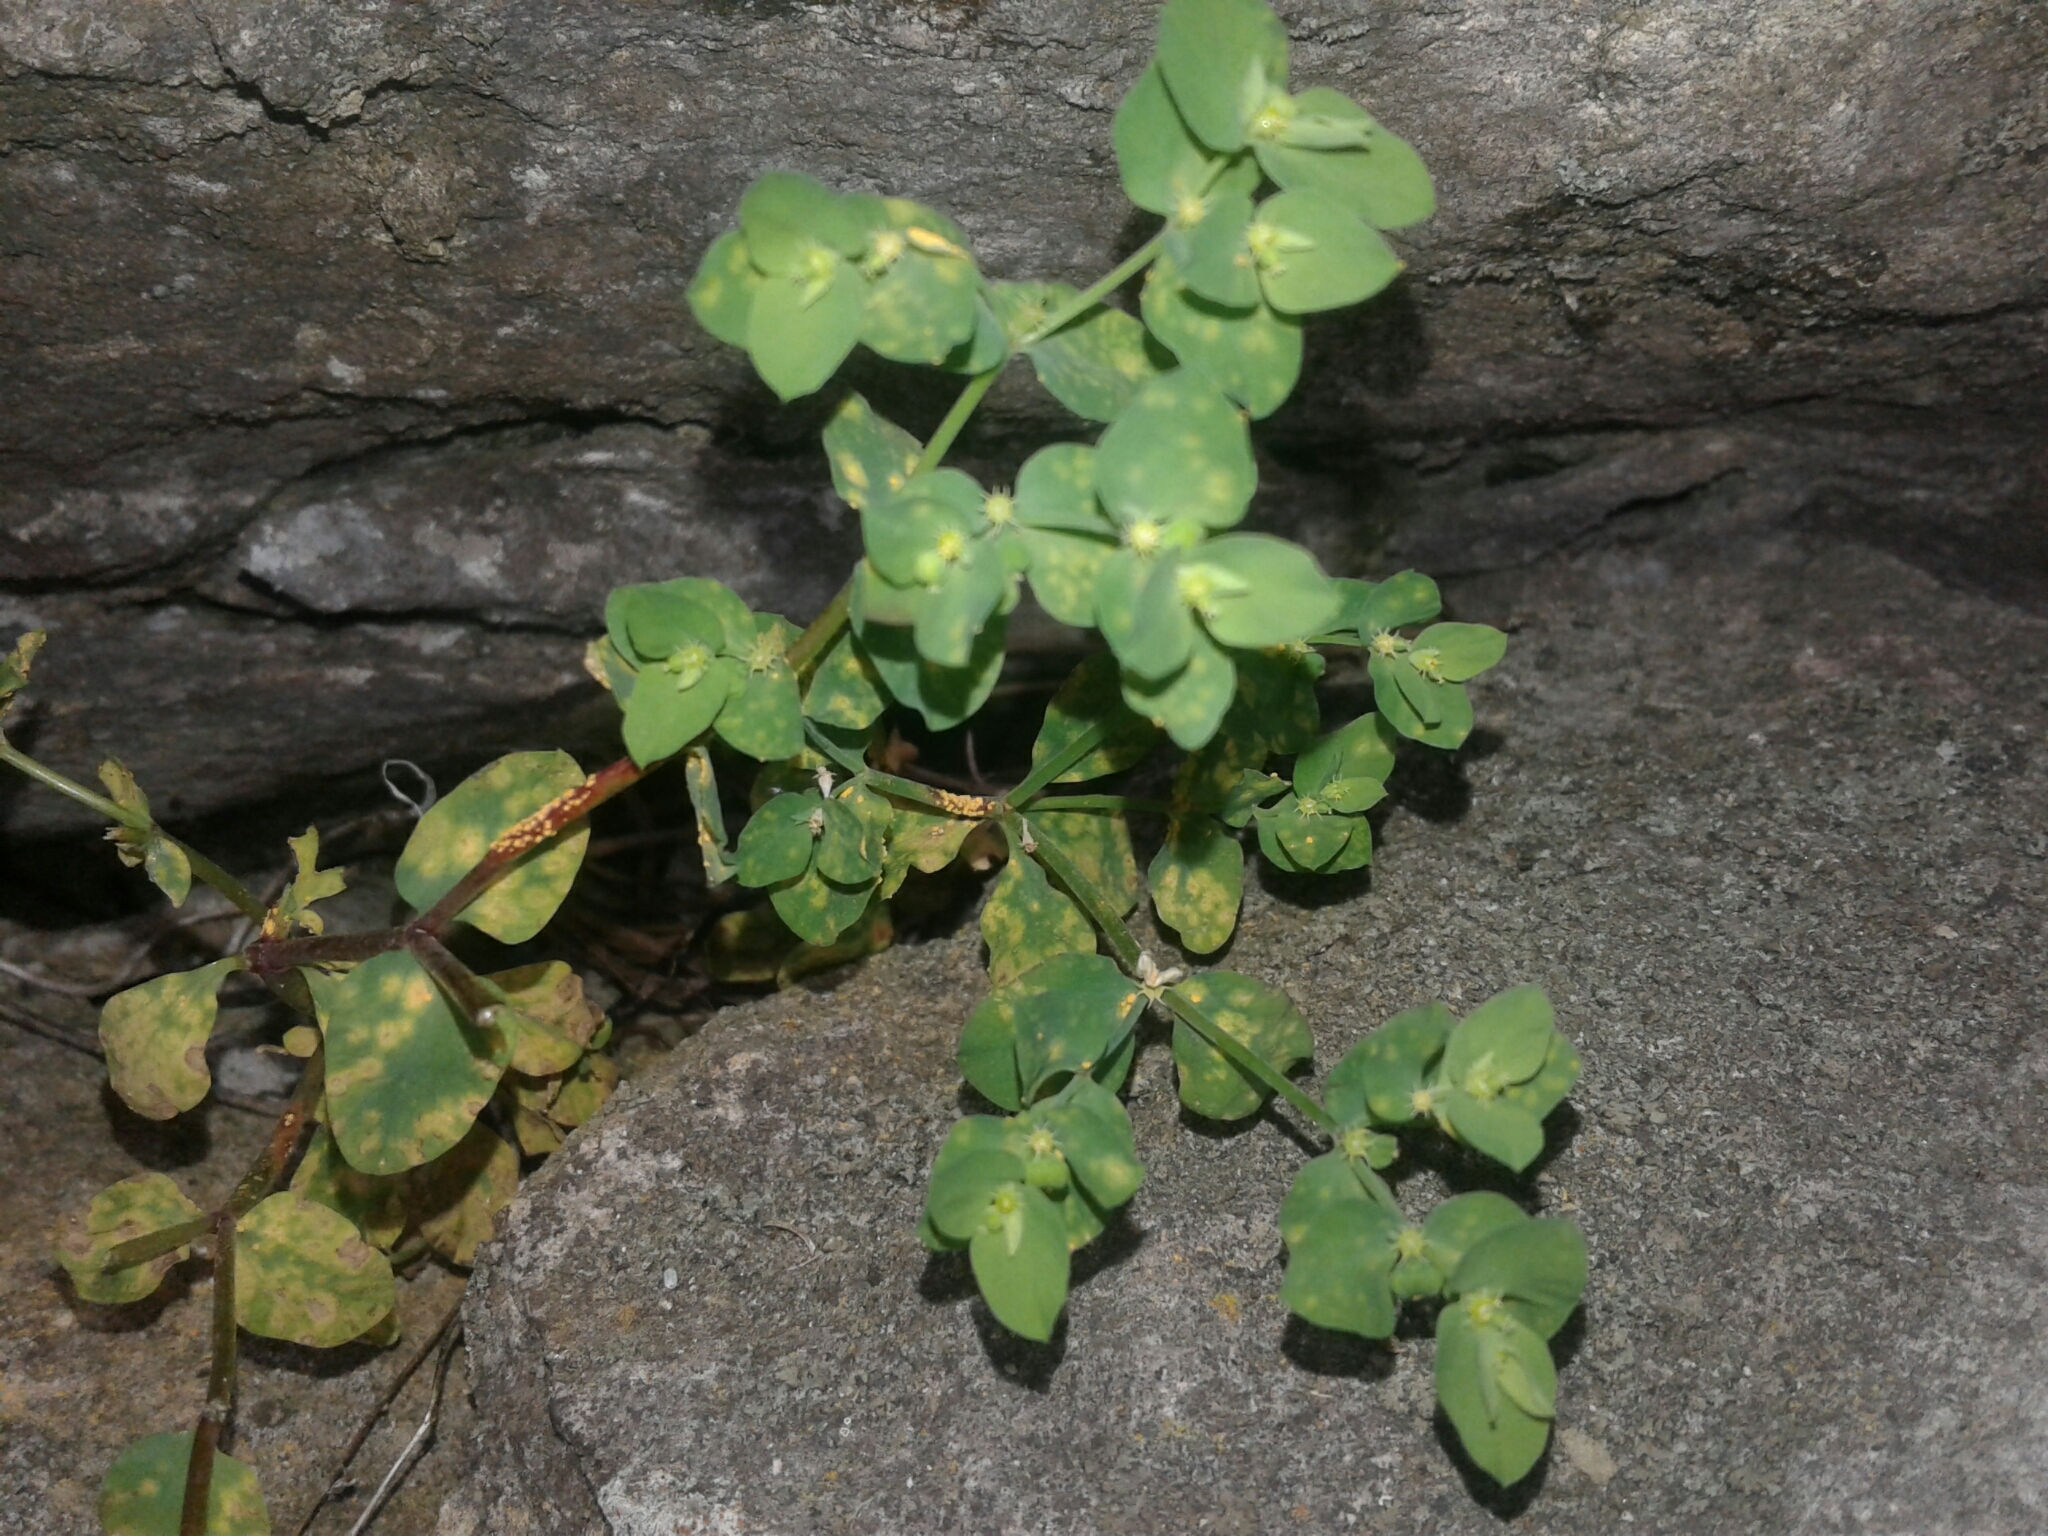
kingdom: Plantae
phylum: Tracheophyta
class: Magnoliopsida
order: Malpighiales
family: Euphorbiaceae
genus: Euphorbia
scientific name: Euphorbia peplus
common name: Petty spurge
